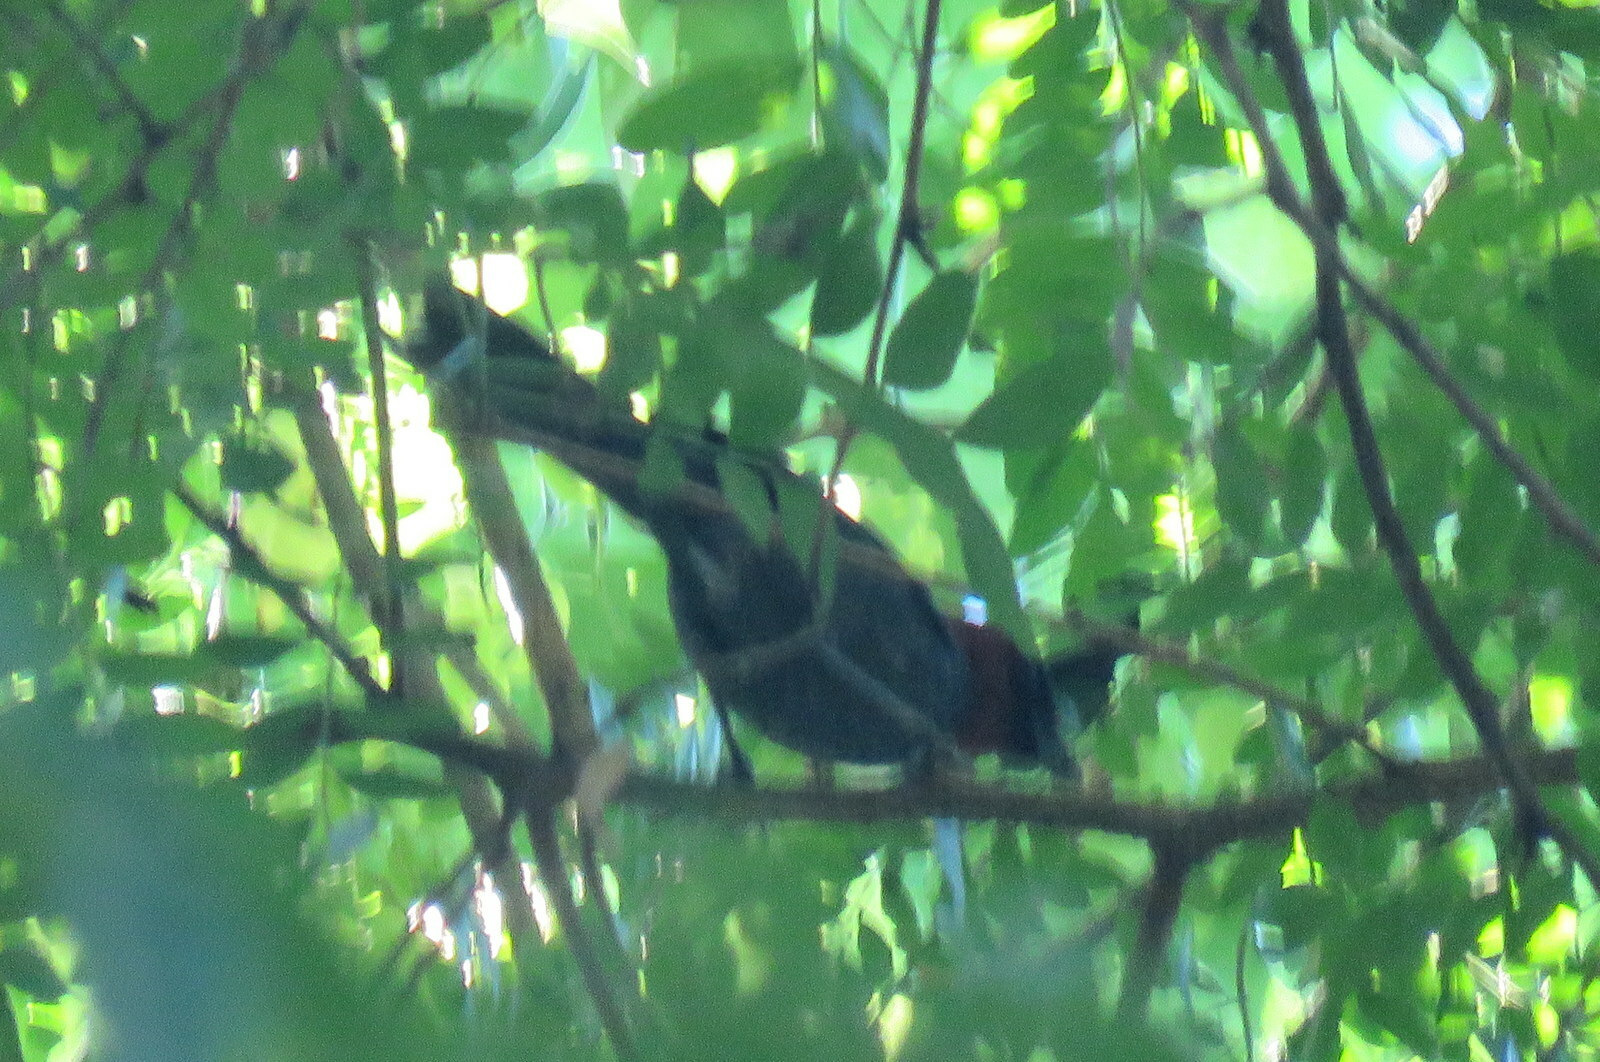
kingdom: Animalia
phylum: Chordata
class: Aves
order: Passeriformes
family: Thraupidae
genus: Thlypopsis
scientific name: Thlypopsis pyrrhocoma
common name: Chestnut-headed tanager
